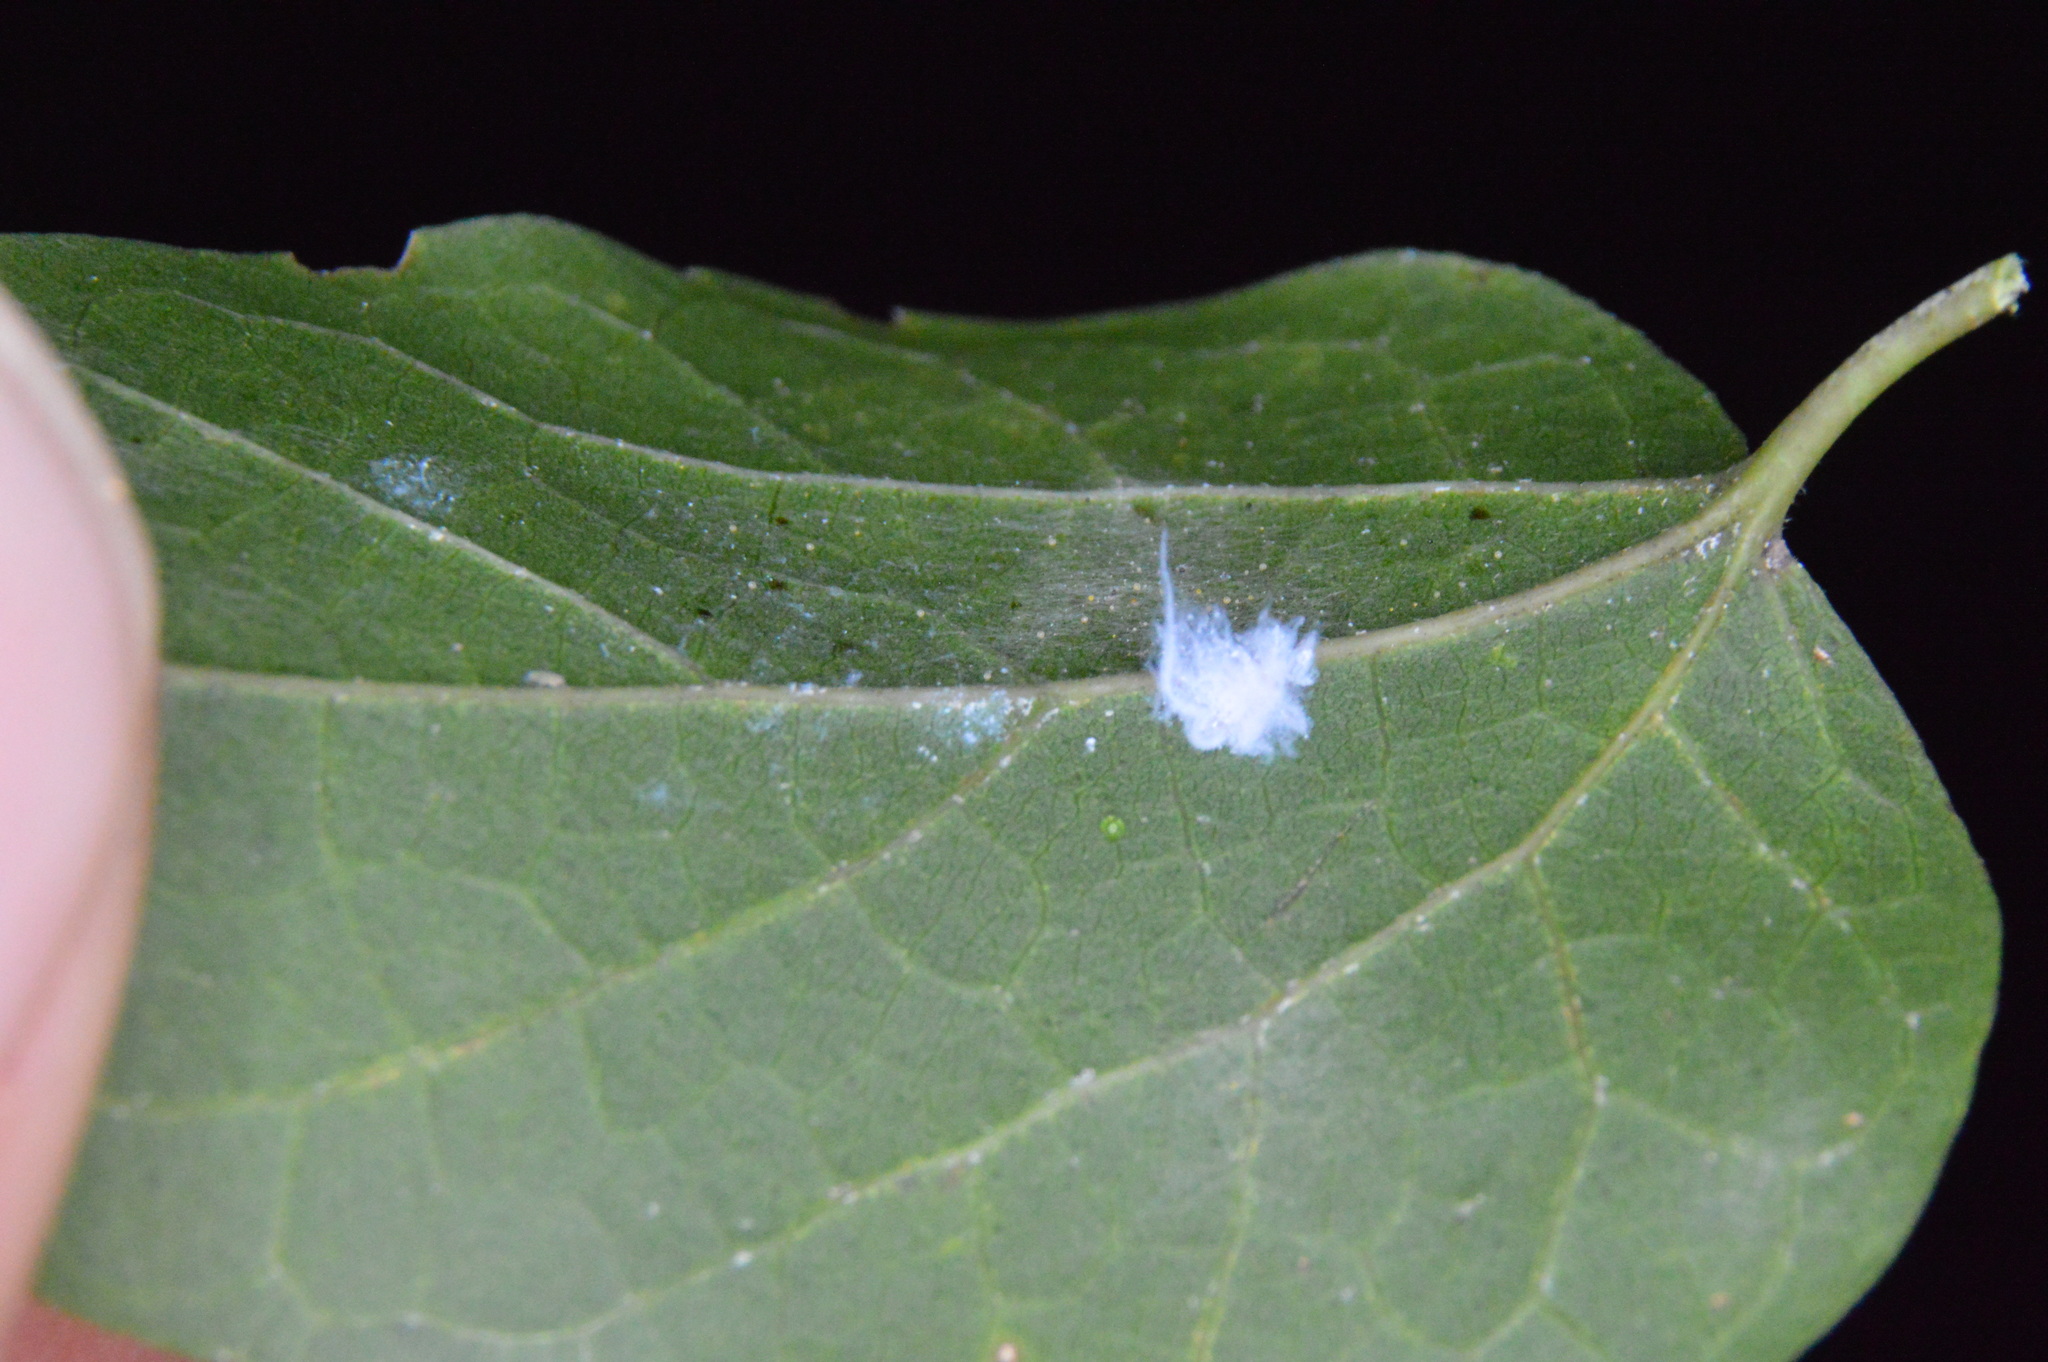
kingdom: Animalia
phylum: Arthropoda
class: Insecta
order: Hemiptera
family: Aphididae
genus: Shivaphis
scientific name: Shivaphis celti
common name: Asian wooly hackberry aphid
